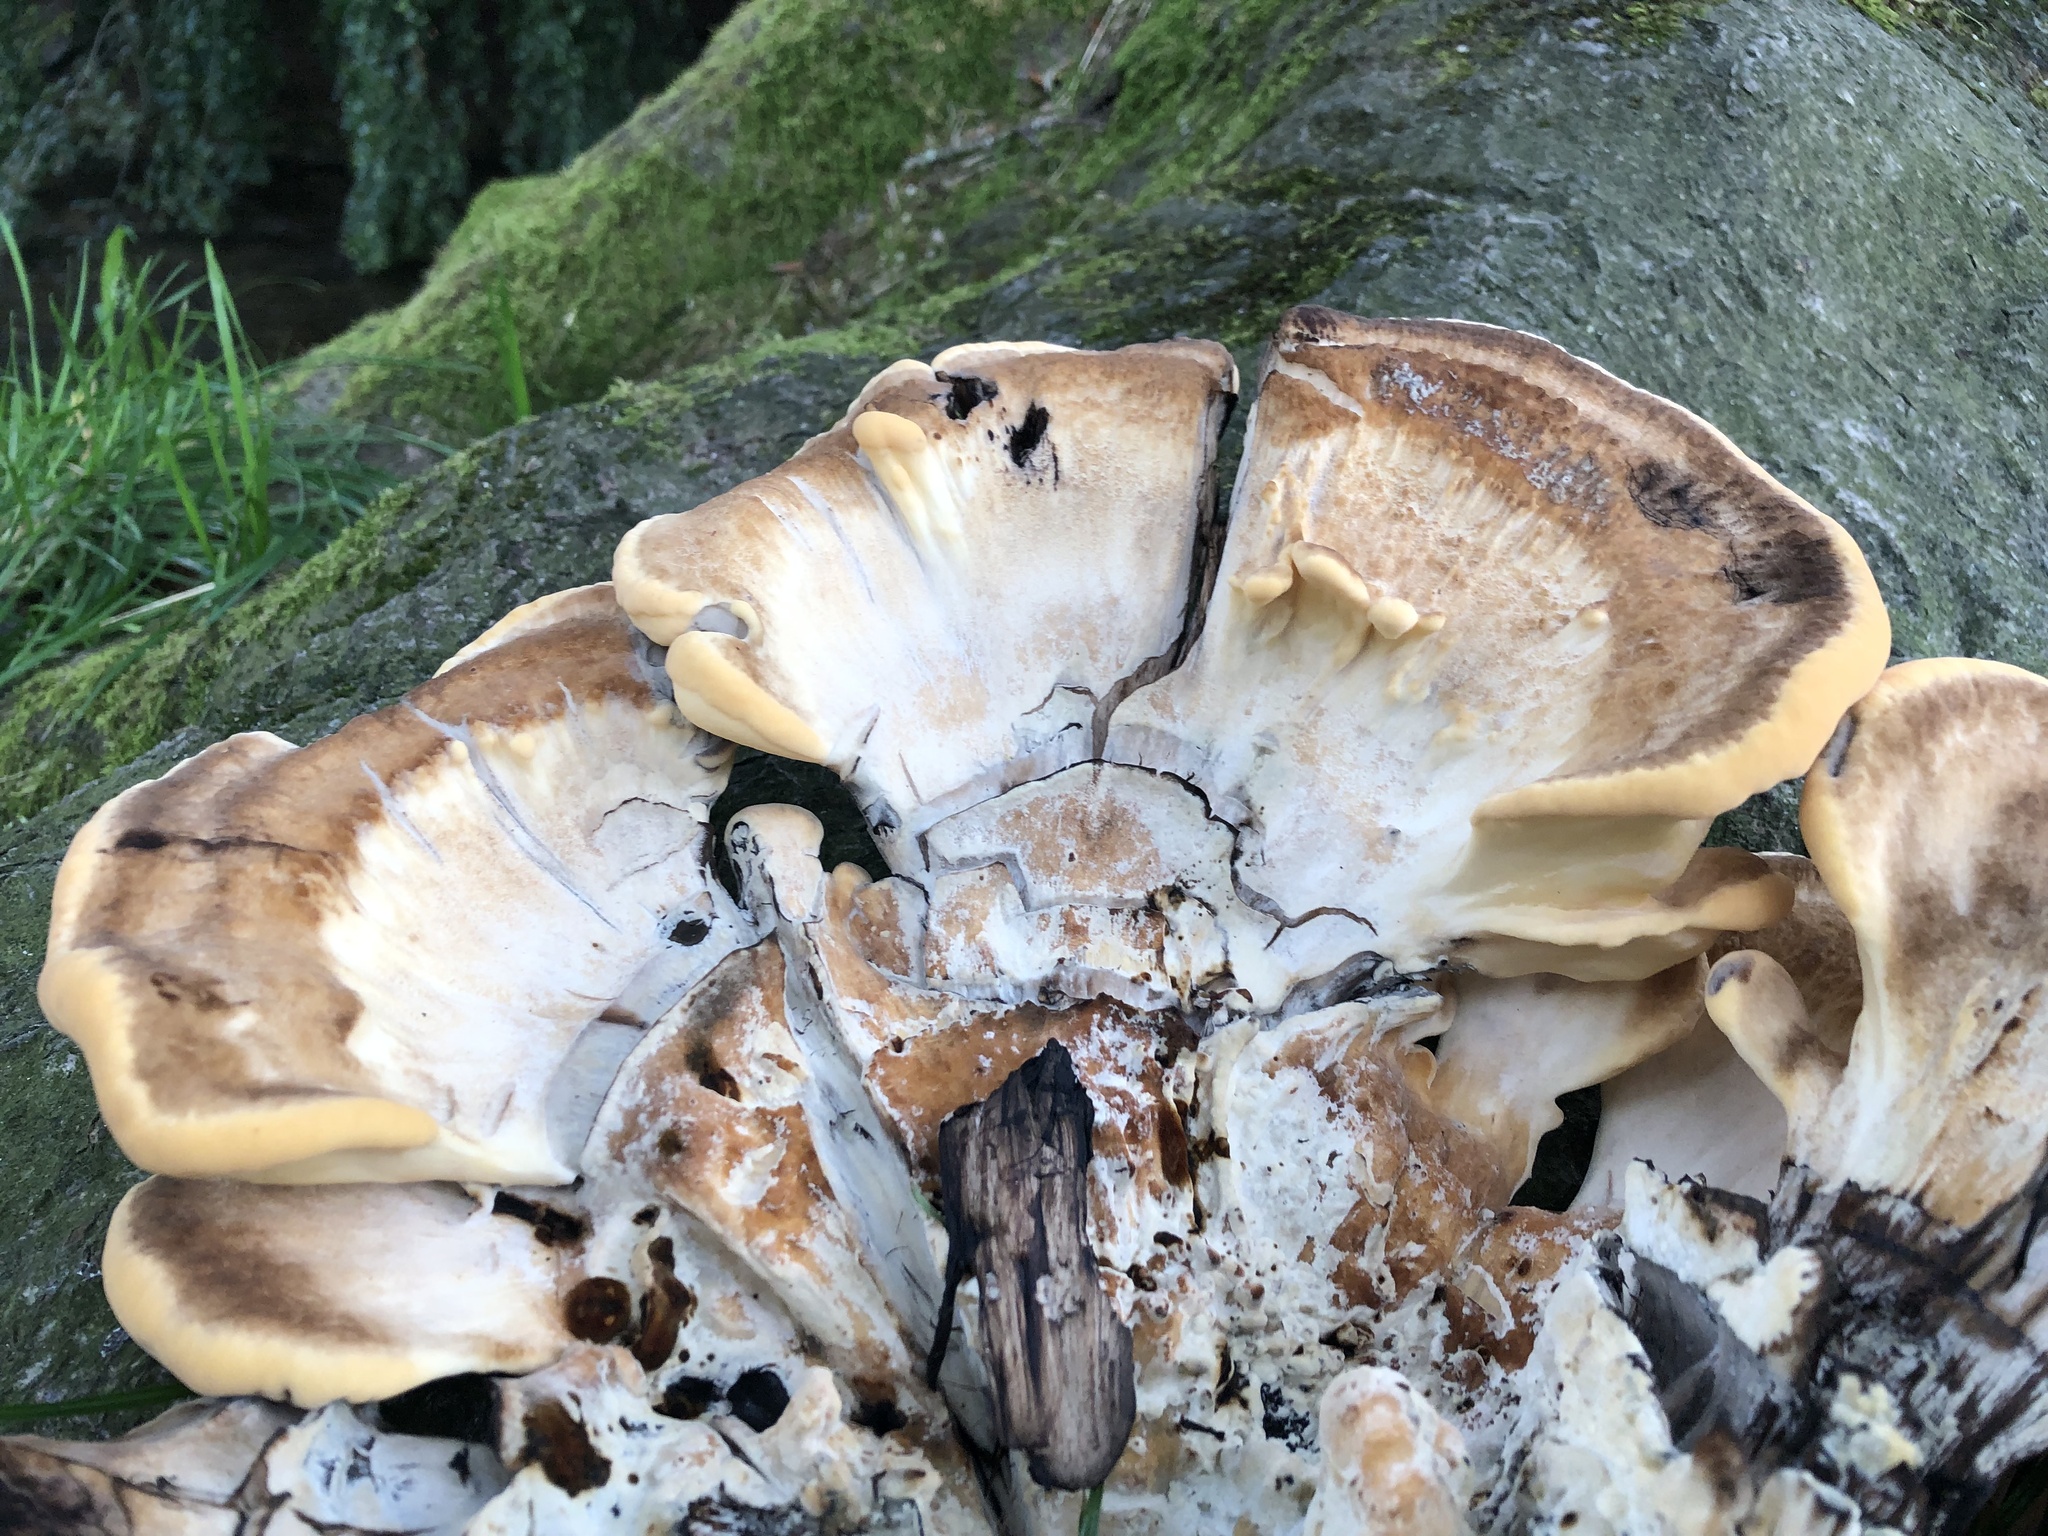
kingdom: Fungi
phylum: Basidiomycota
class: Agaricomycetes
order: Polyporales
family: Meripilaceae
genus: Meripilus
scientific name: Meripilus giganteus
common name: Giant polypore
